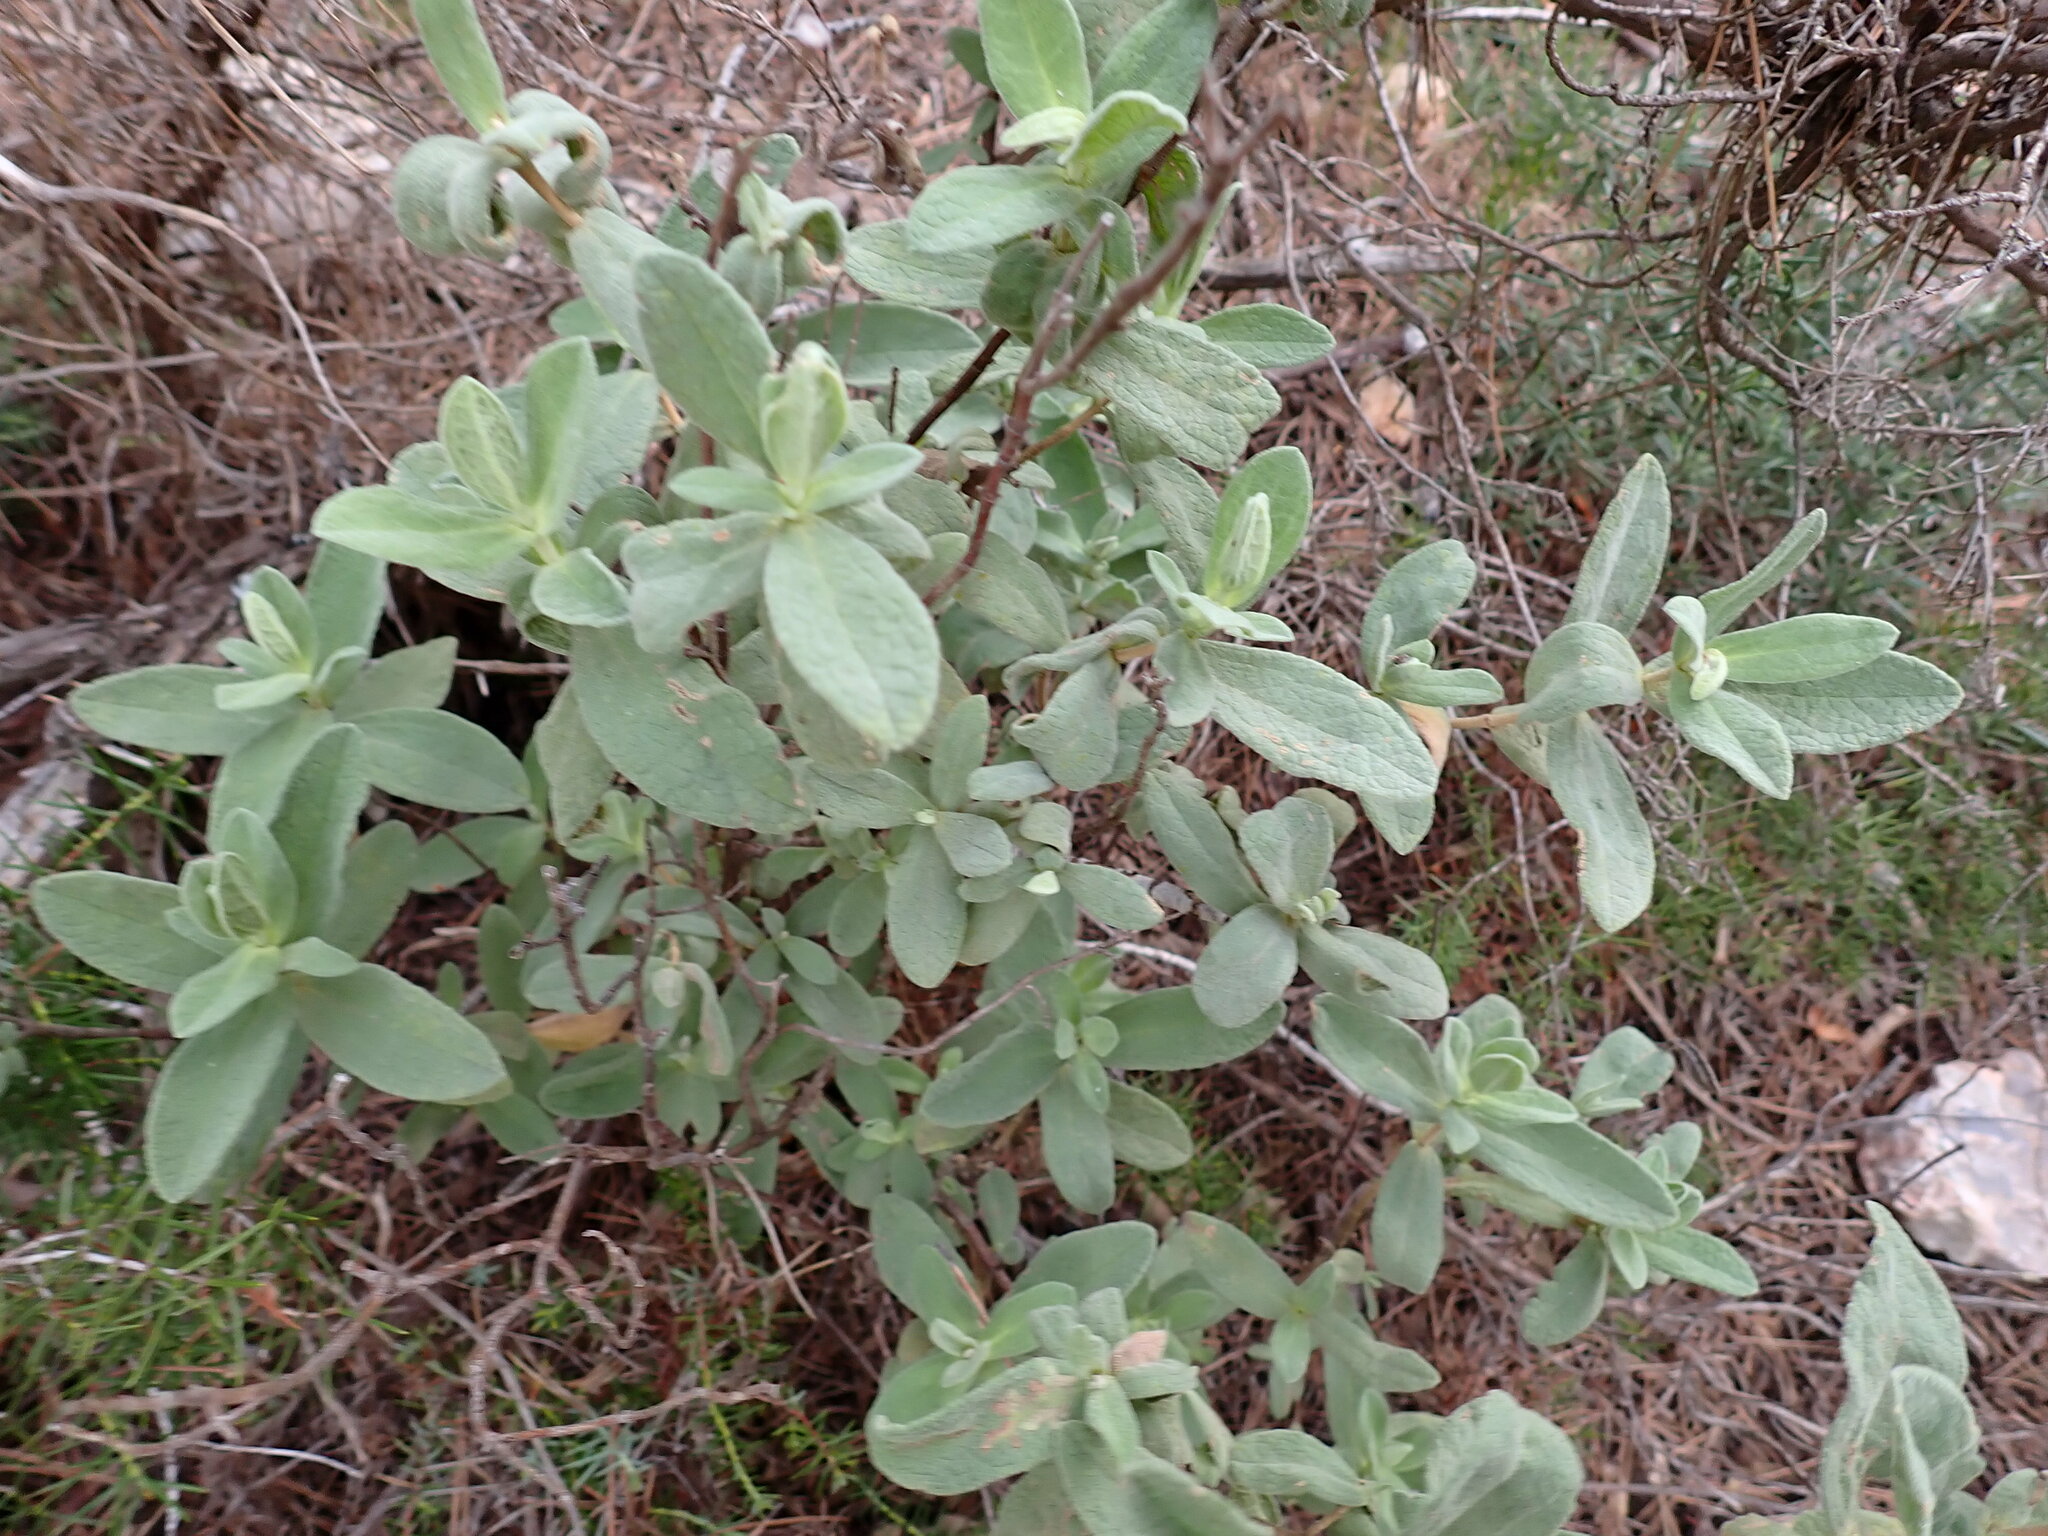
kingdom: Plantae
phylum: Tracheophyta
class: Magnoliopsida
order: Malvales
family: Cistaceae
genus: Cistus
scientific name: Cistus albidus
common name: White-leaf rock-rose
